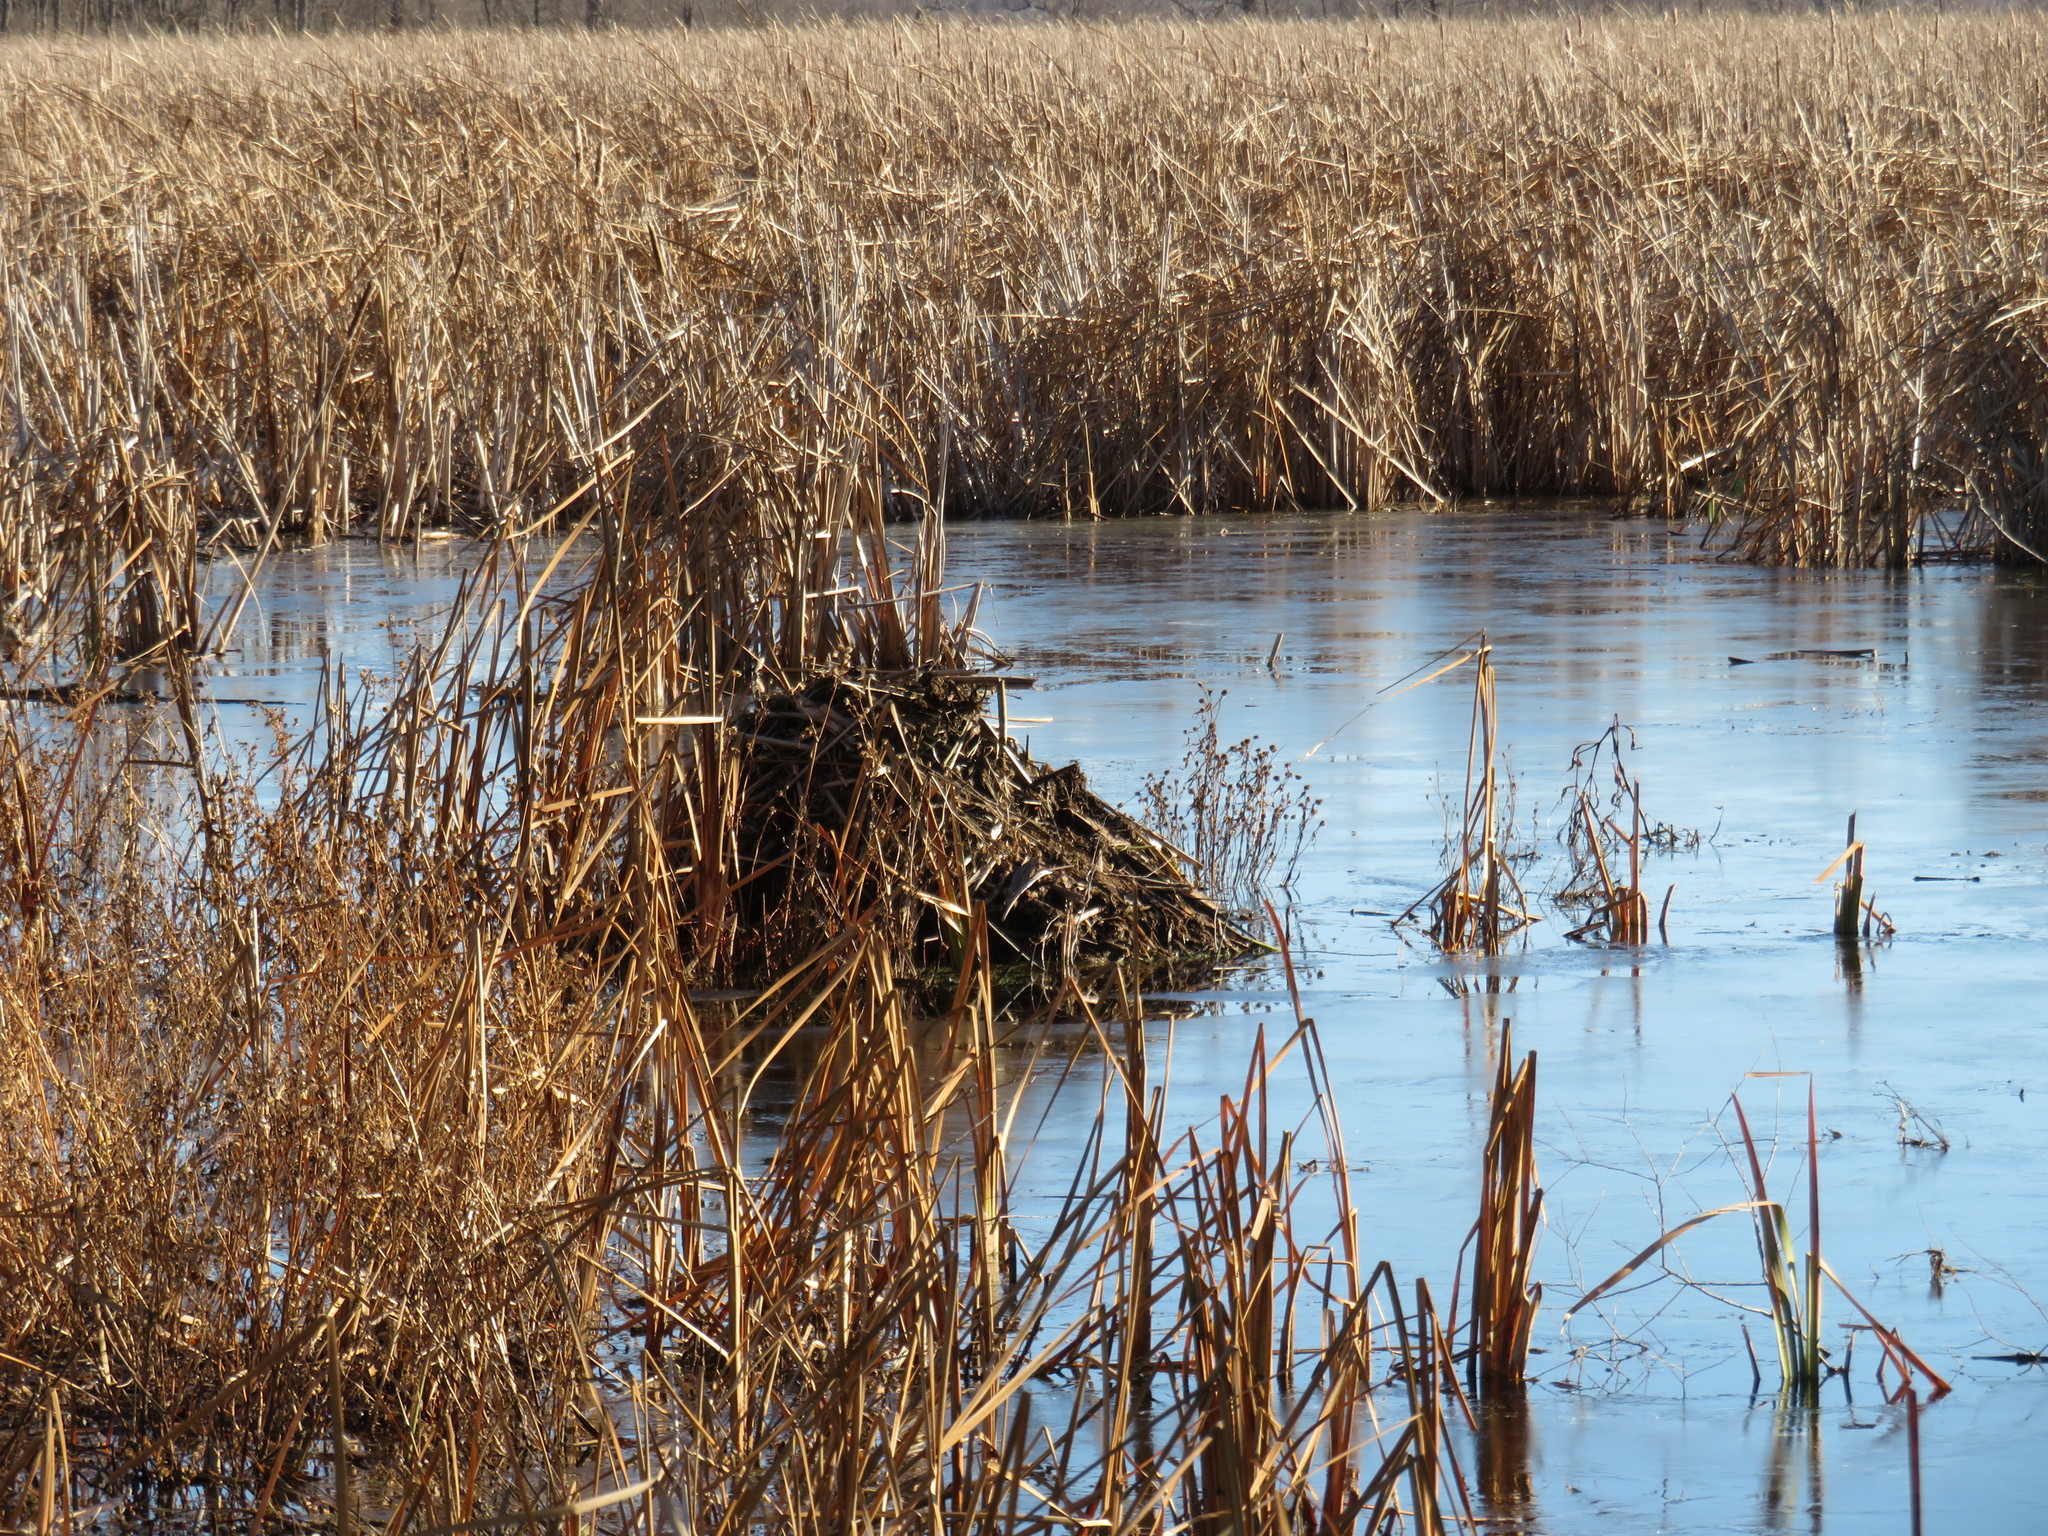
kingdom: Animalia
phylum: Chordata
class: Mammalia
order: Rodentia
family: Cricetidae
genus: Ondatra
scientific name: Ondatra zibethicus
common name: Muskrat
